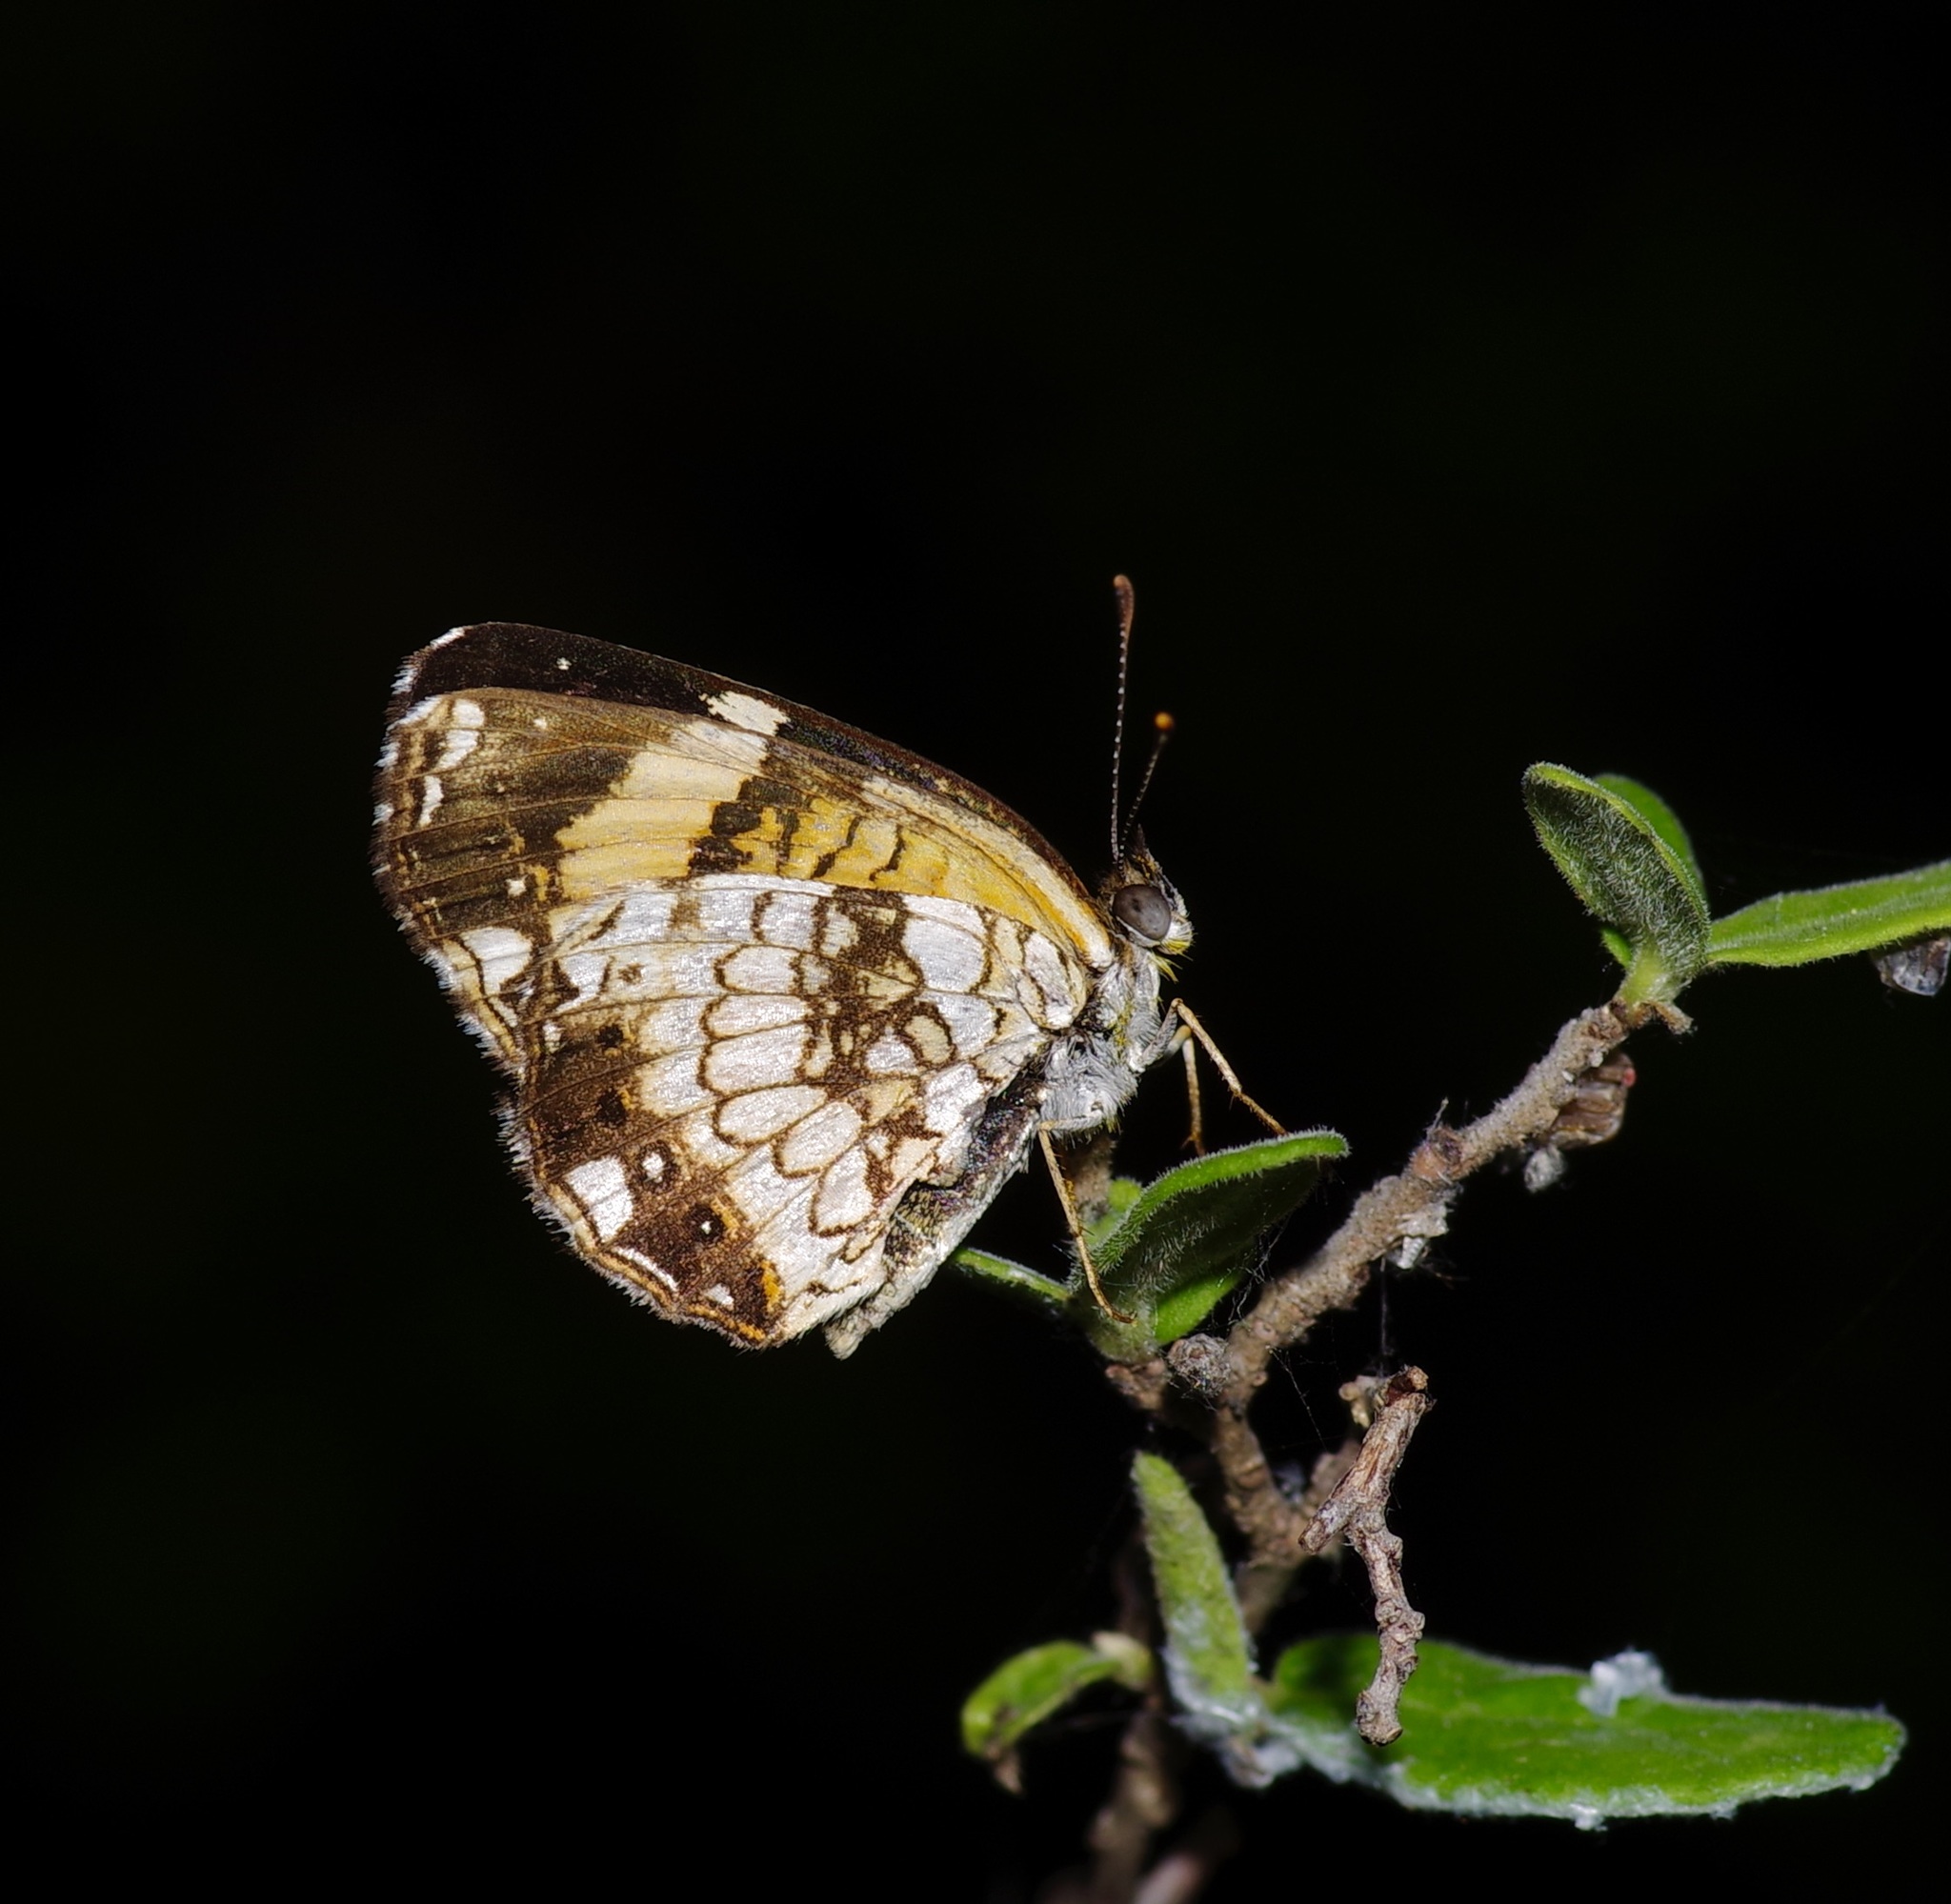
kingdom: Animalia
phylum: Arthropoda
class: Insecta
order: Lepidoptera
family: Nymphalidae
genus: Chlosyne
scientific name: Chlosyne nycteis
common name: Silvery checkerspot
